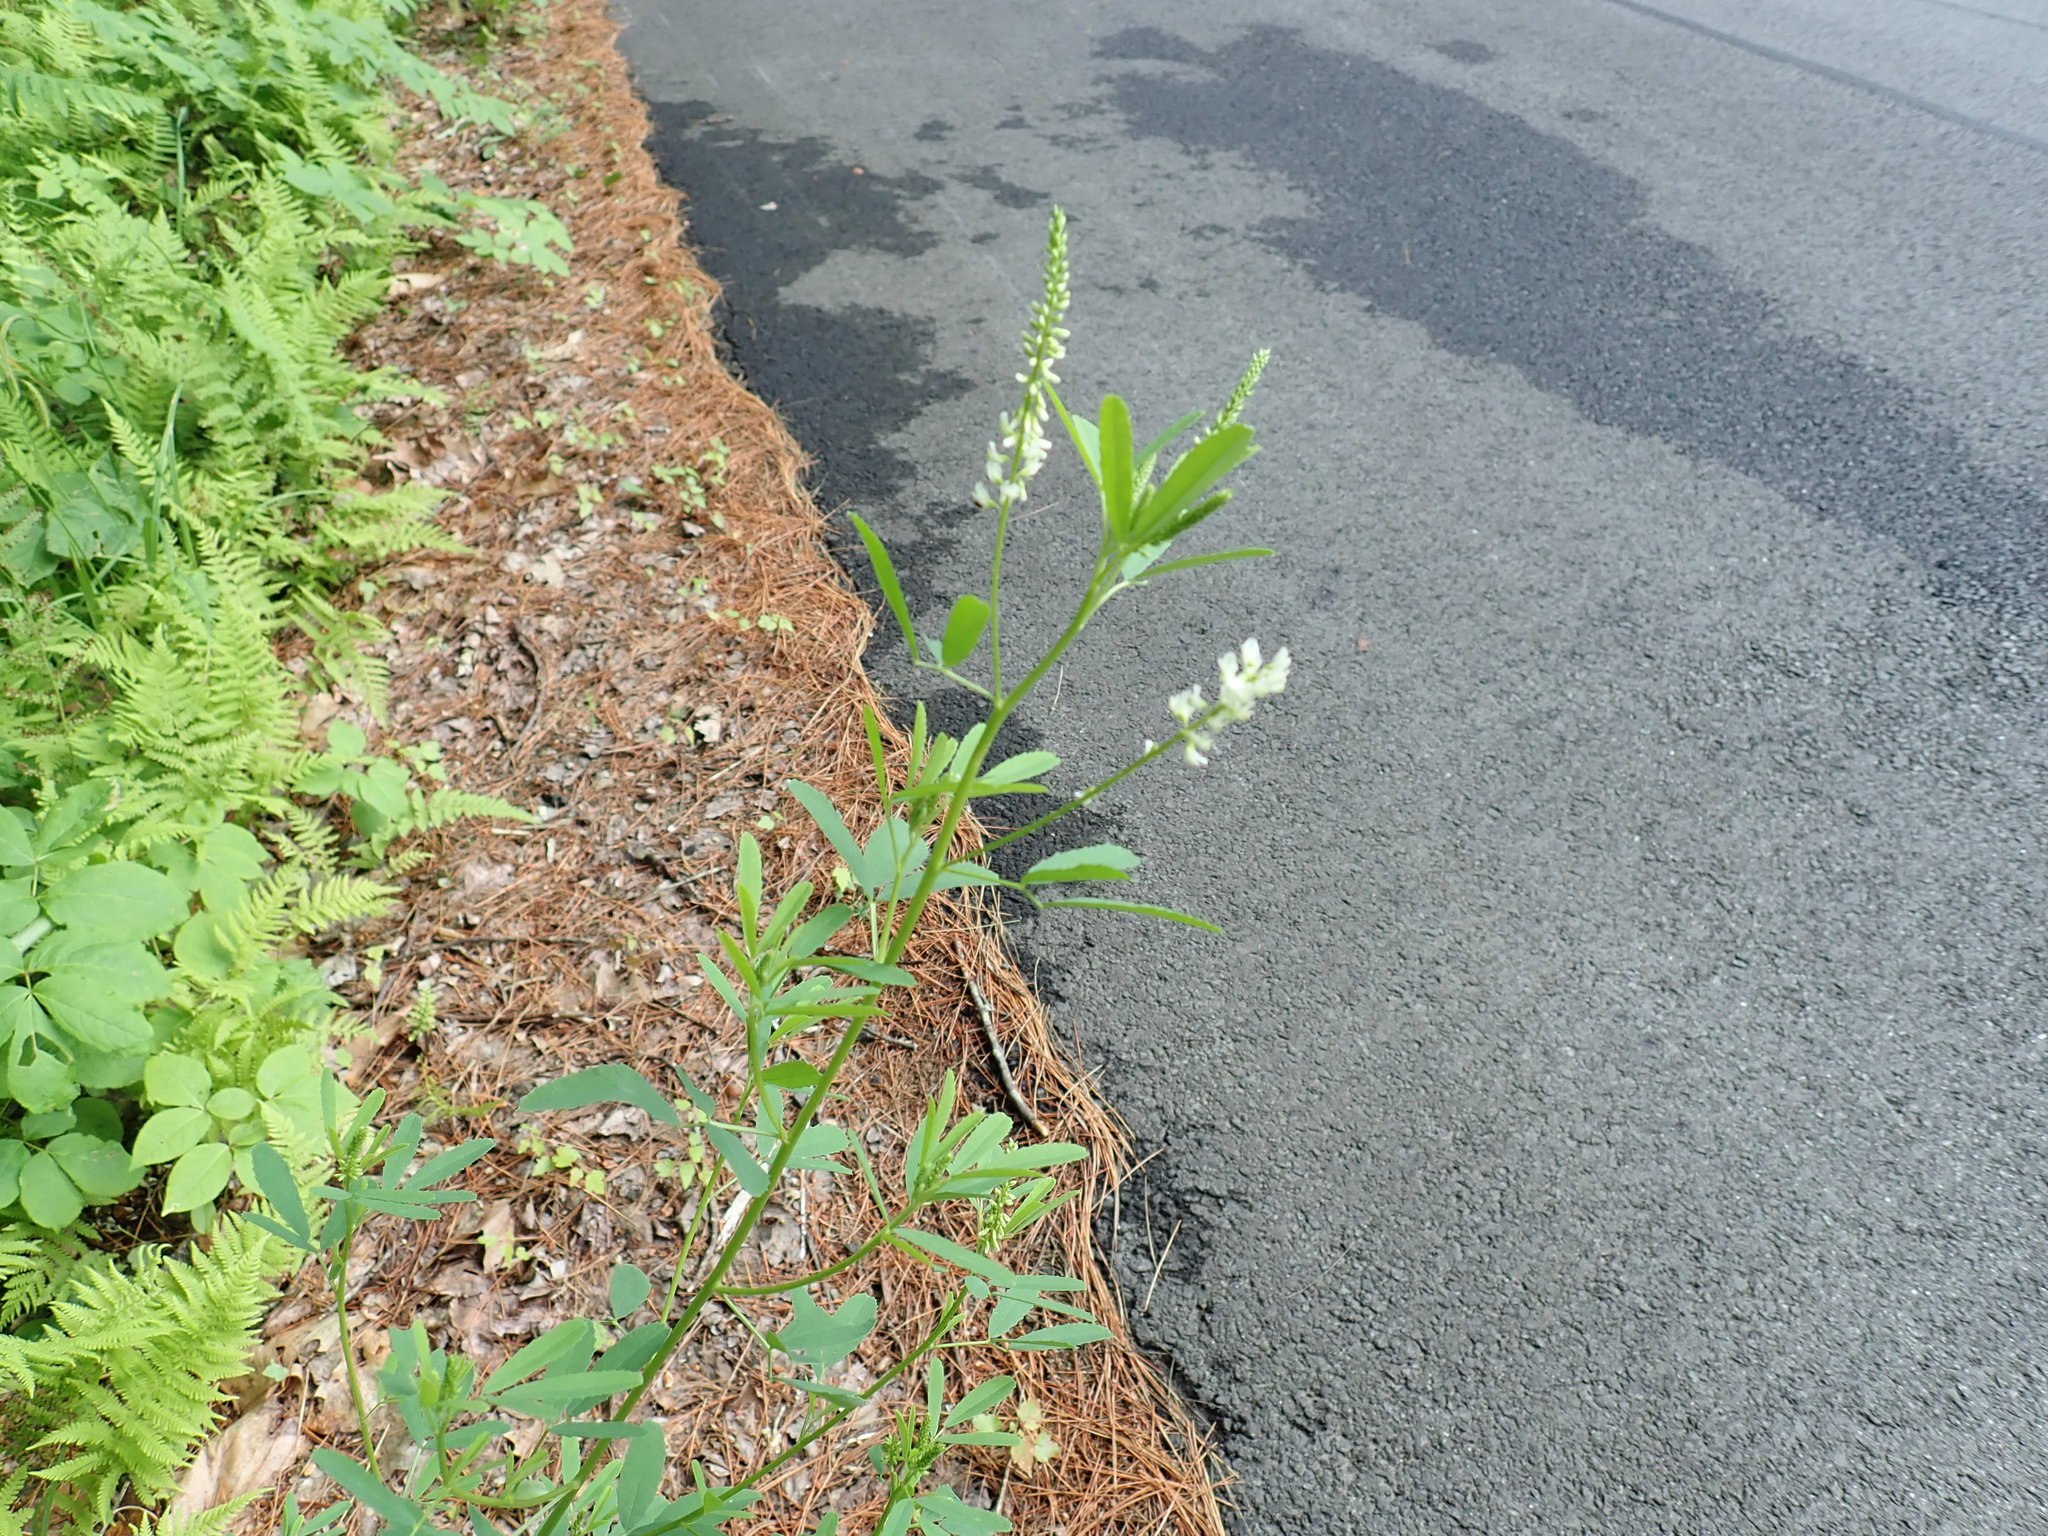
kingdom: Plantae
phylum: Tracheophyta
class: Magnoliopsida
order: Fabales
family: Fabaceae
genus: Melilotus
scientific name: Melilotus albus
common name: White melilot
